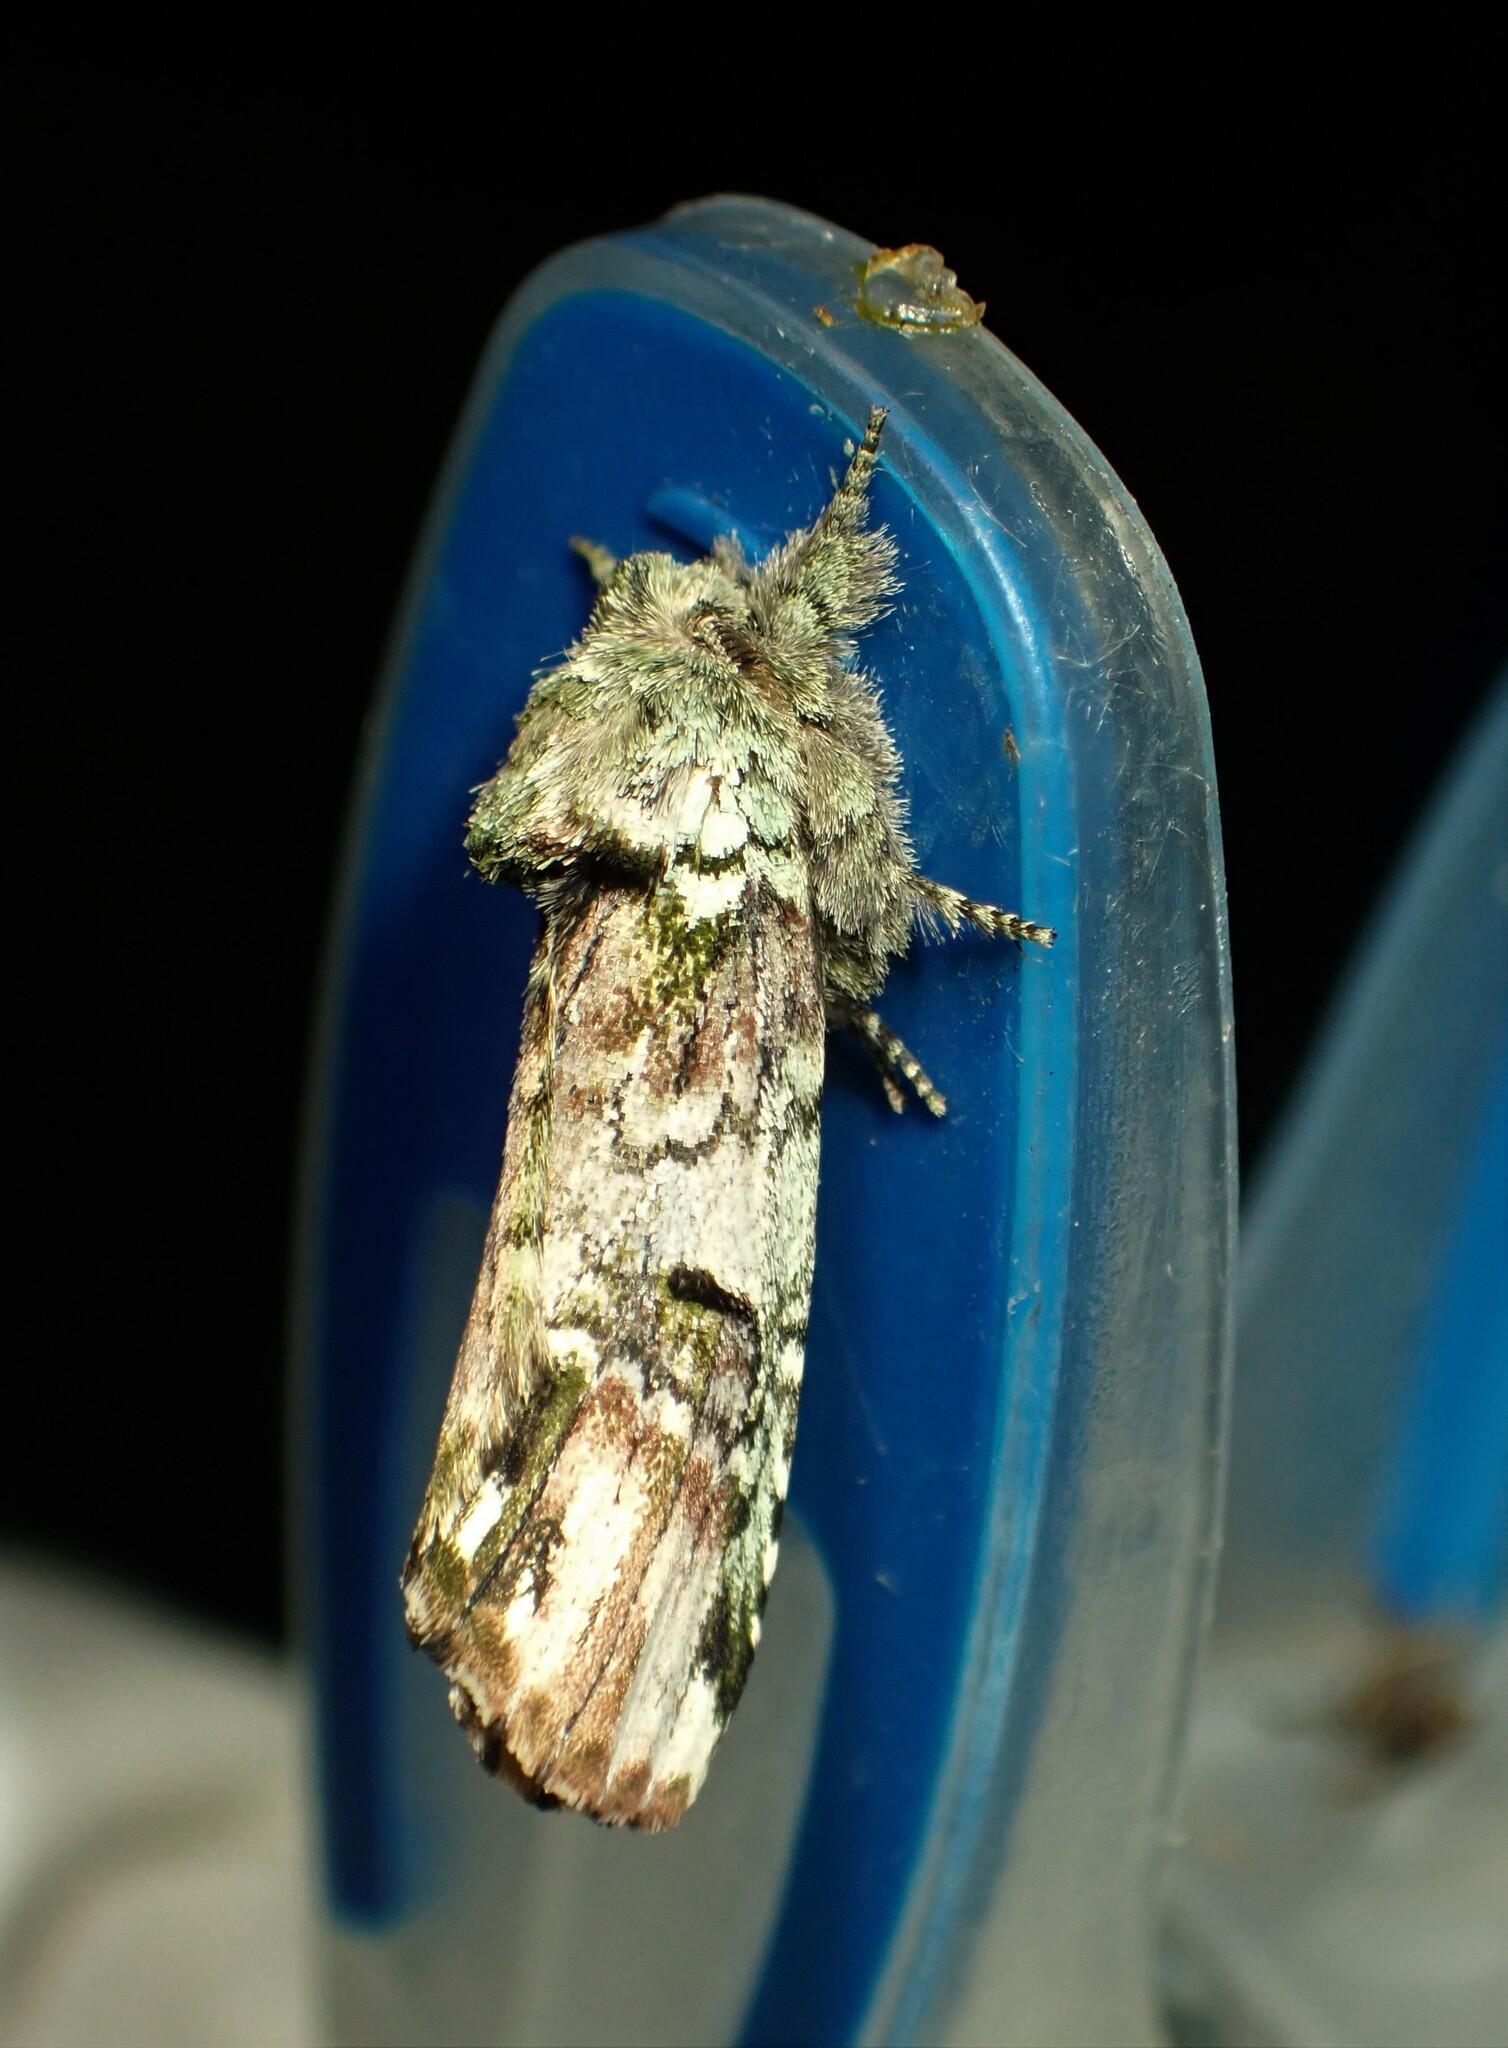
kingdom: Animalia
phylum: Arthropoda
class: Insecta
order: Lepidoptera
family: Notodontidae
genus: Schizura
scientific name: Schizura
